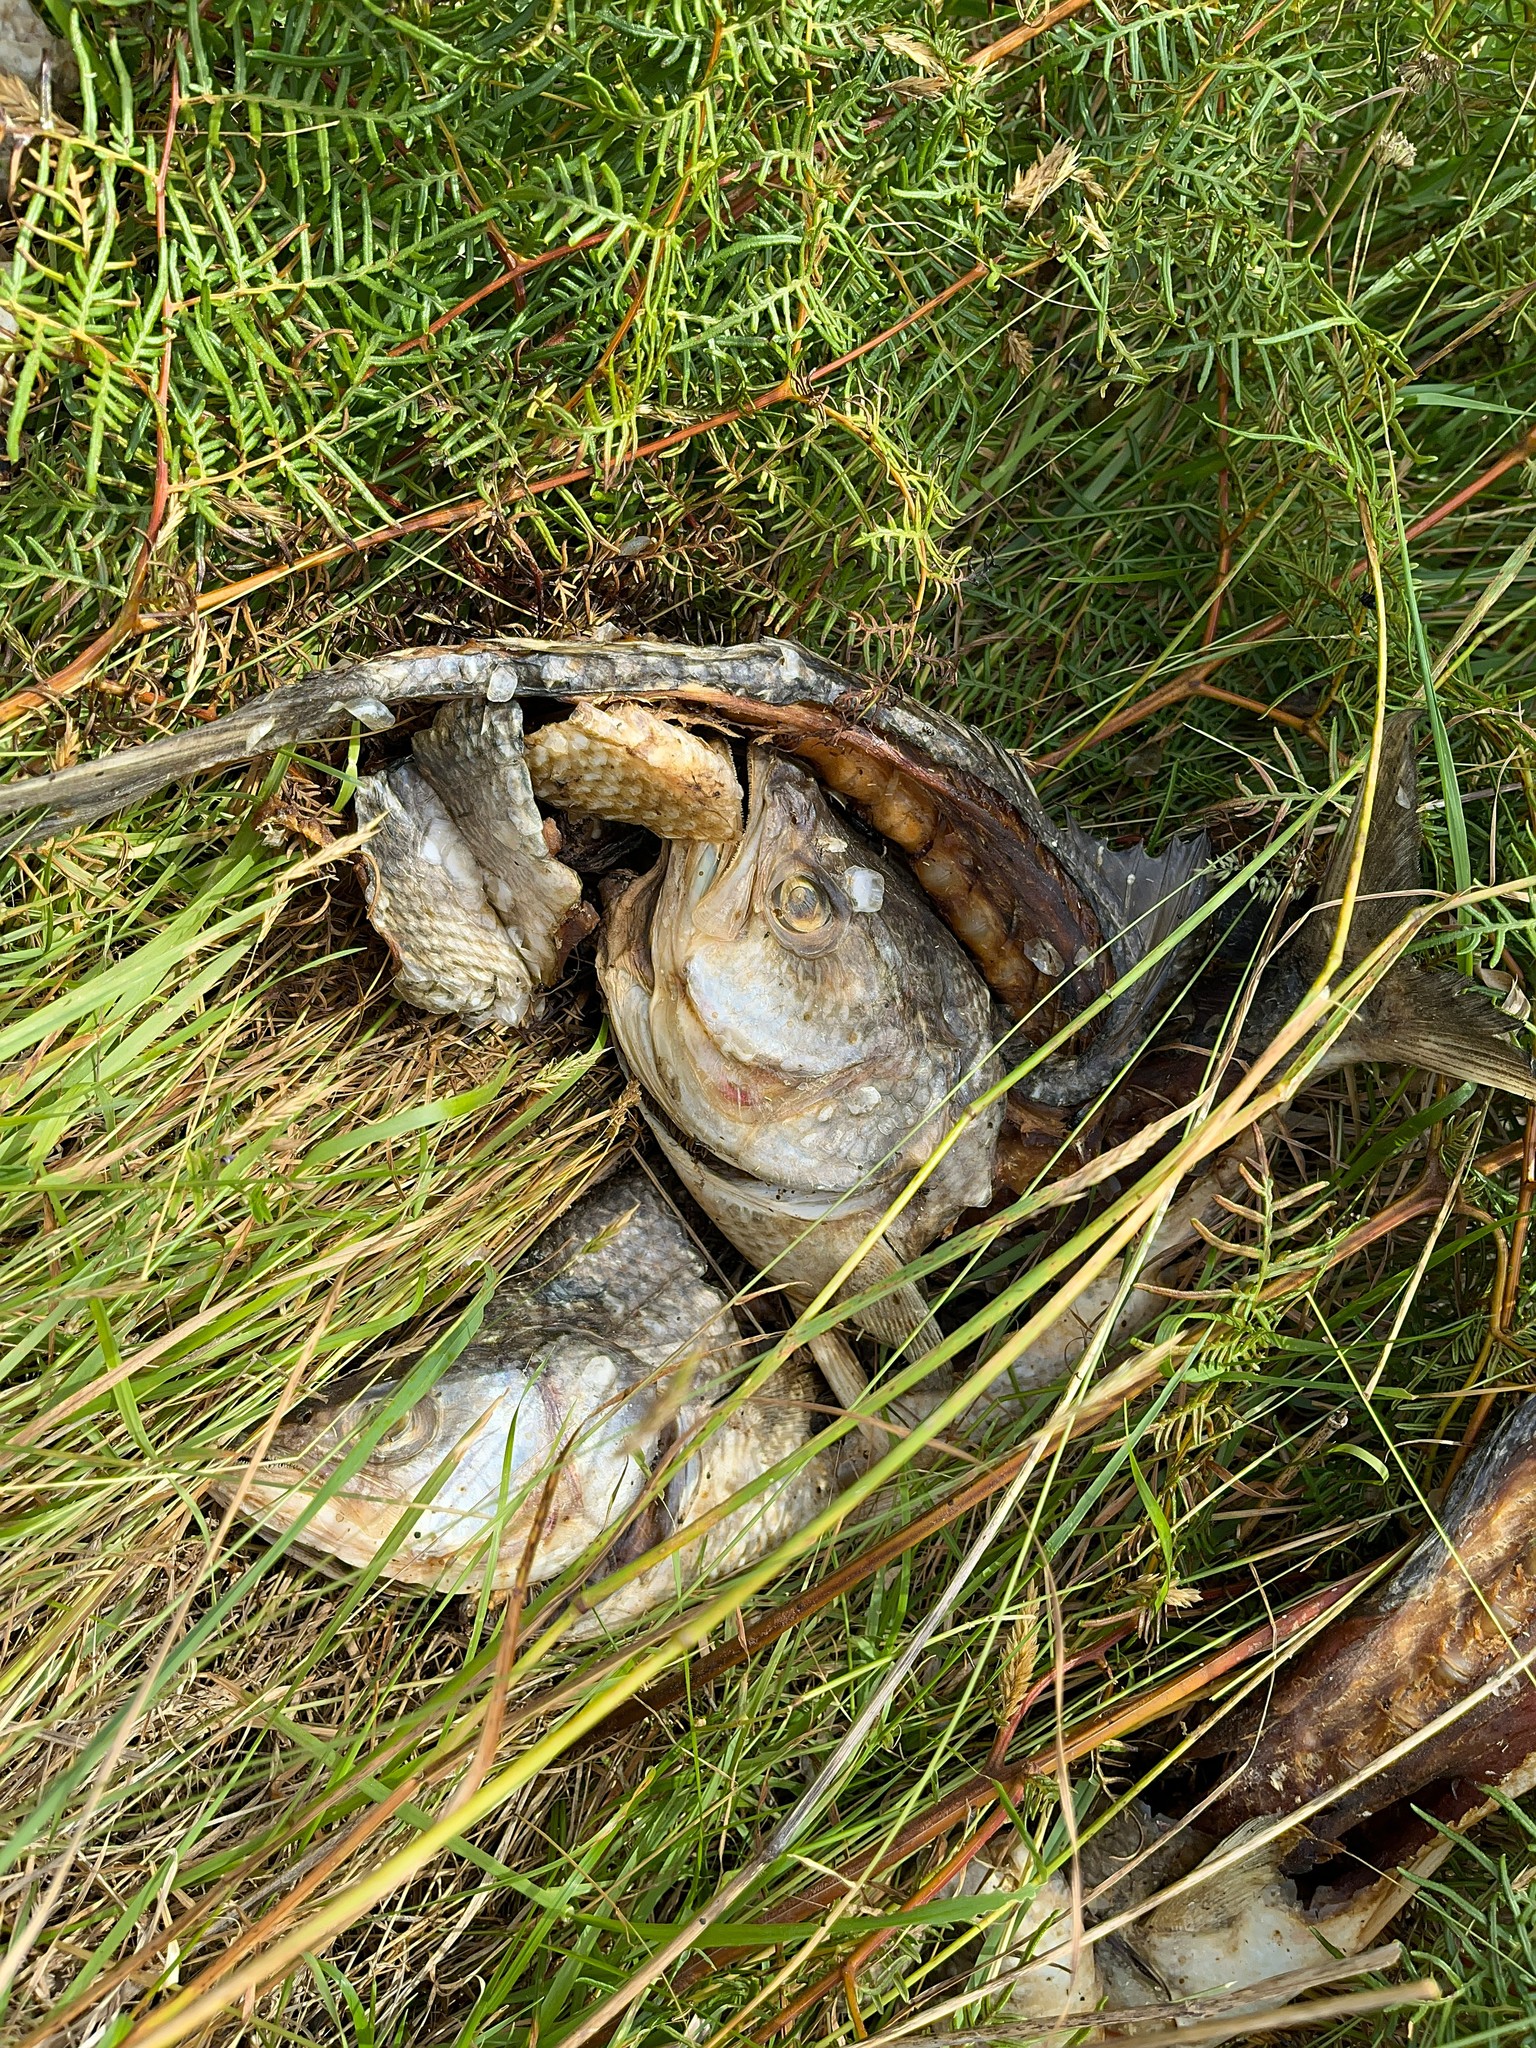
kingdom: Animalia
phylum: Chordata
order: Perciformes
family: Arripidae
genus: Arripis
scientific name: Arripis trutta
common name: Kahawai
